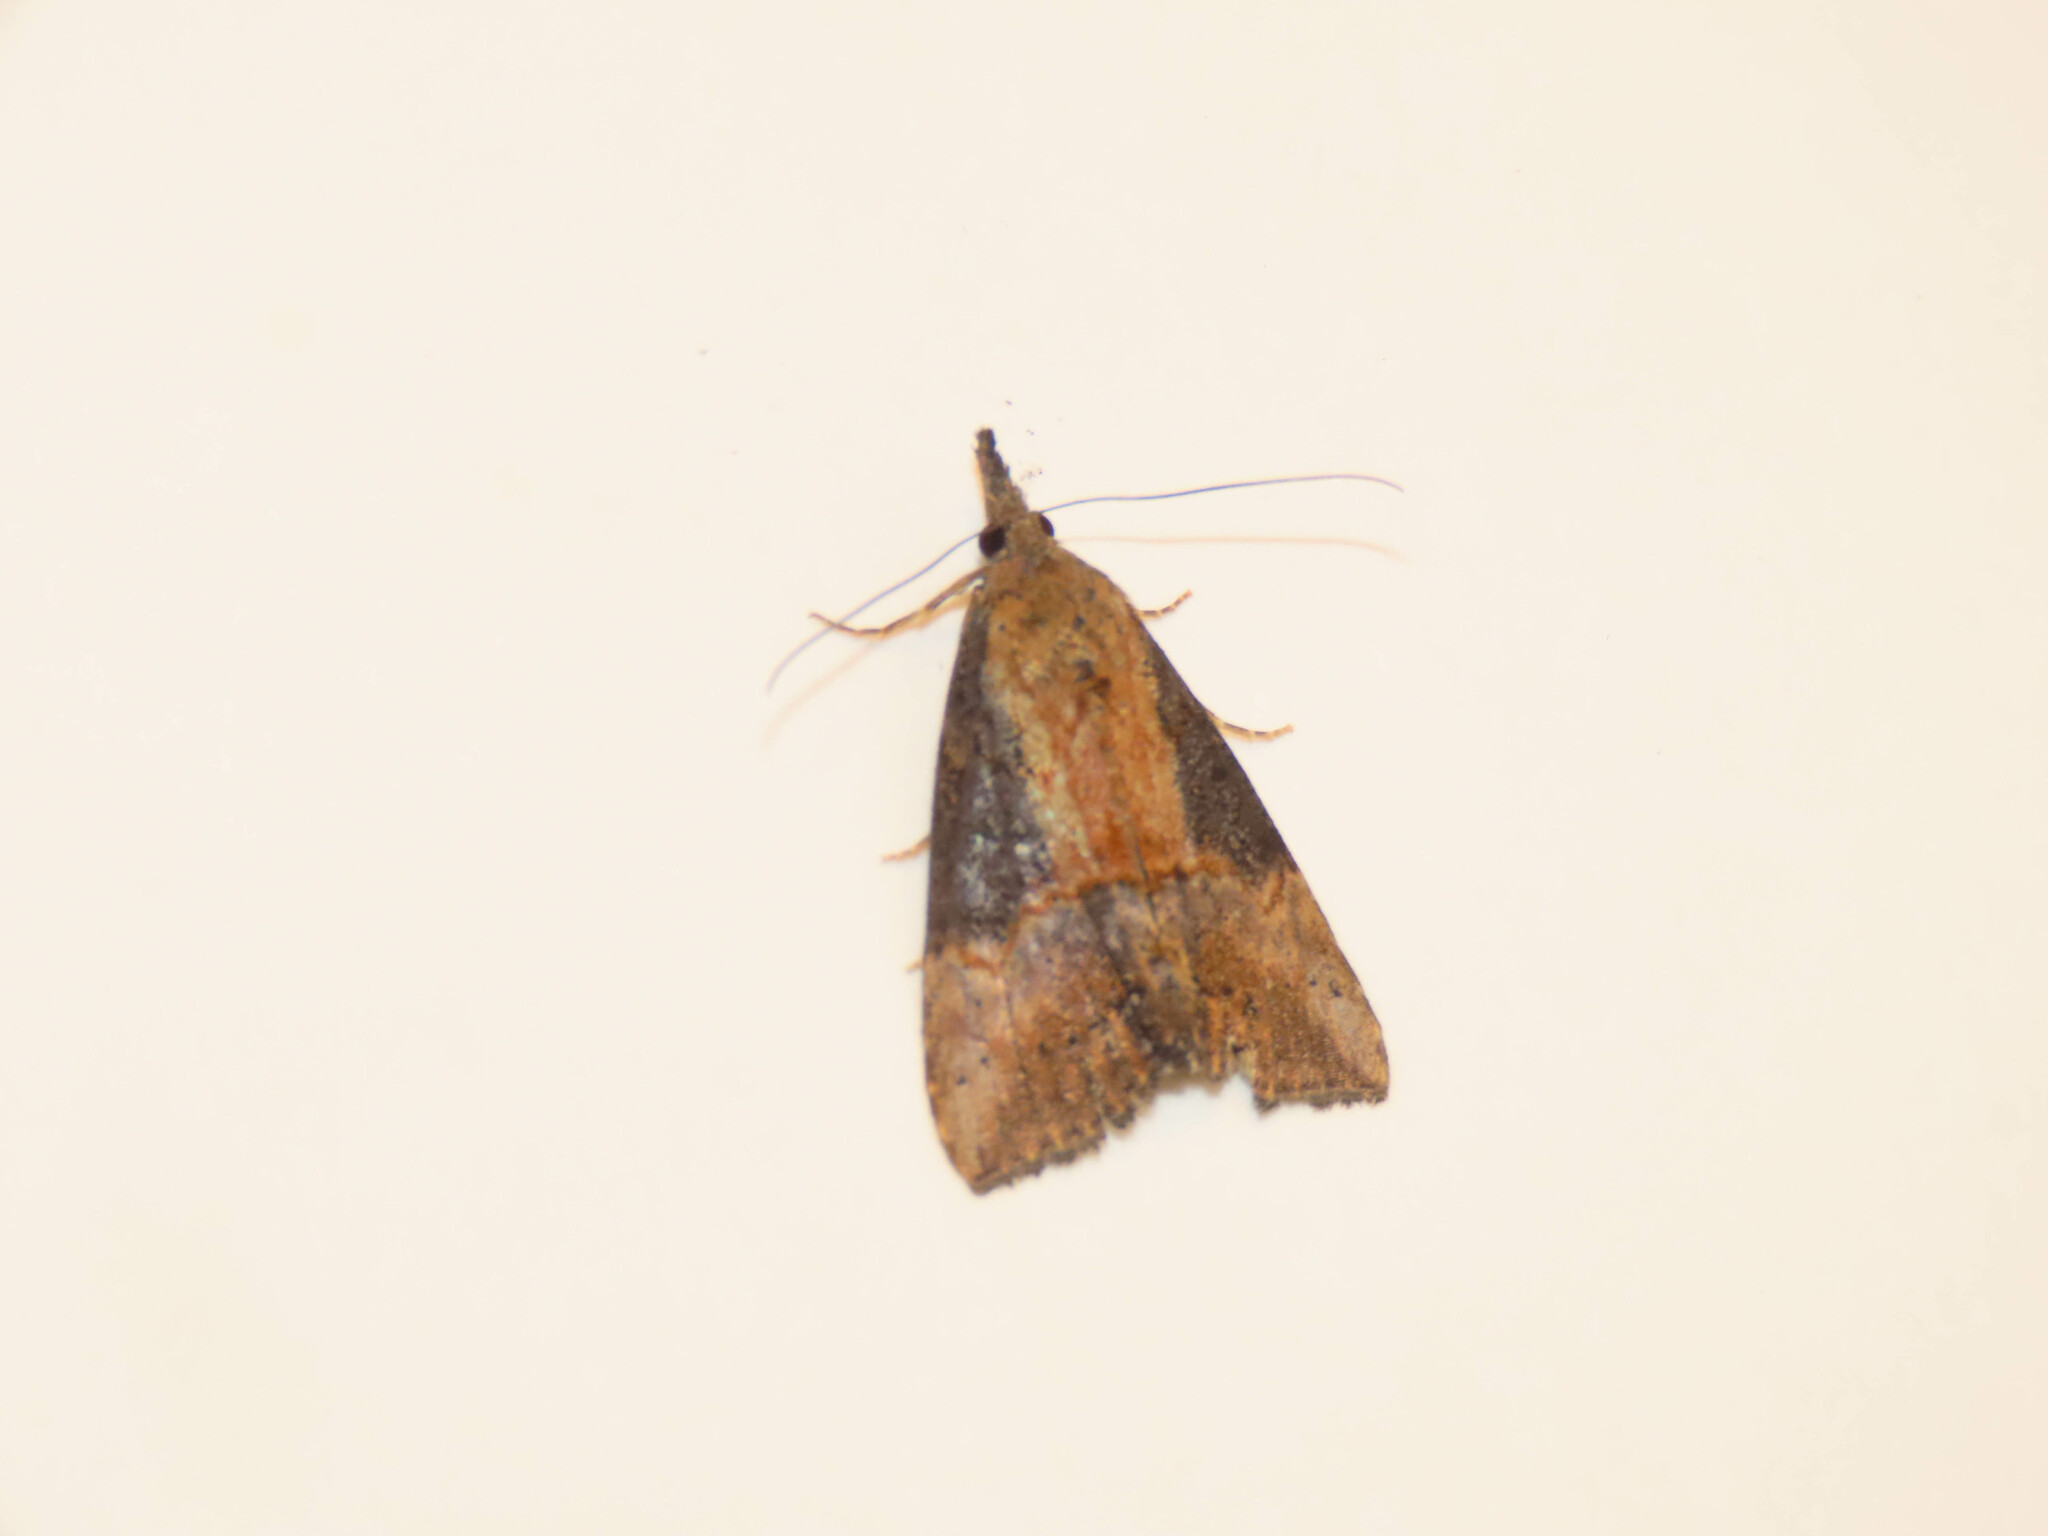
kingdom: Animalia
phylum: Arthropoda
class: Insecta
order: Lepidoptera
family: Erebidae
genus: Hypena
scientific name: Hypena scabra
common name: Green cloverworm
